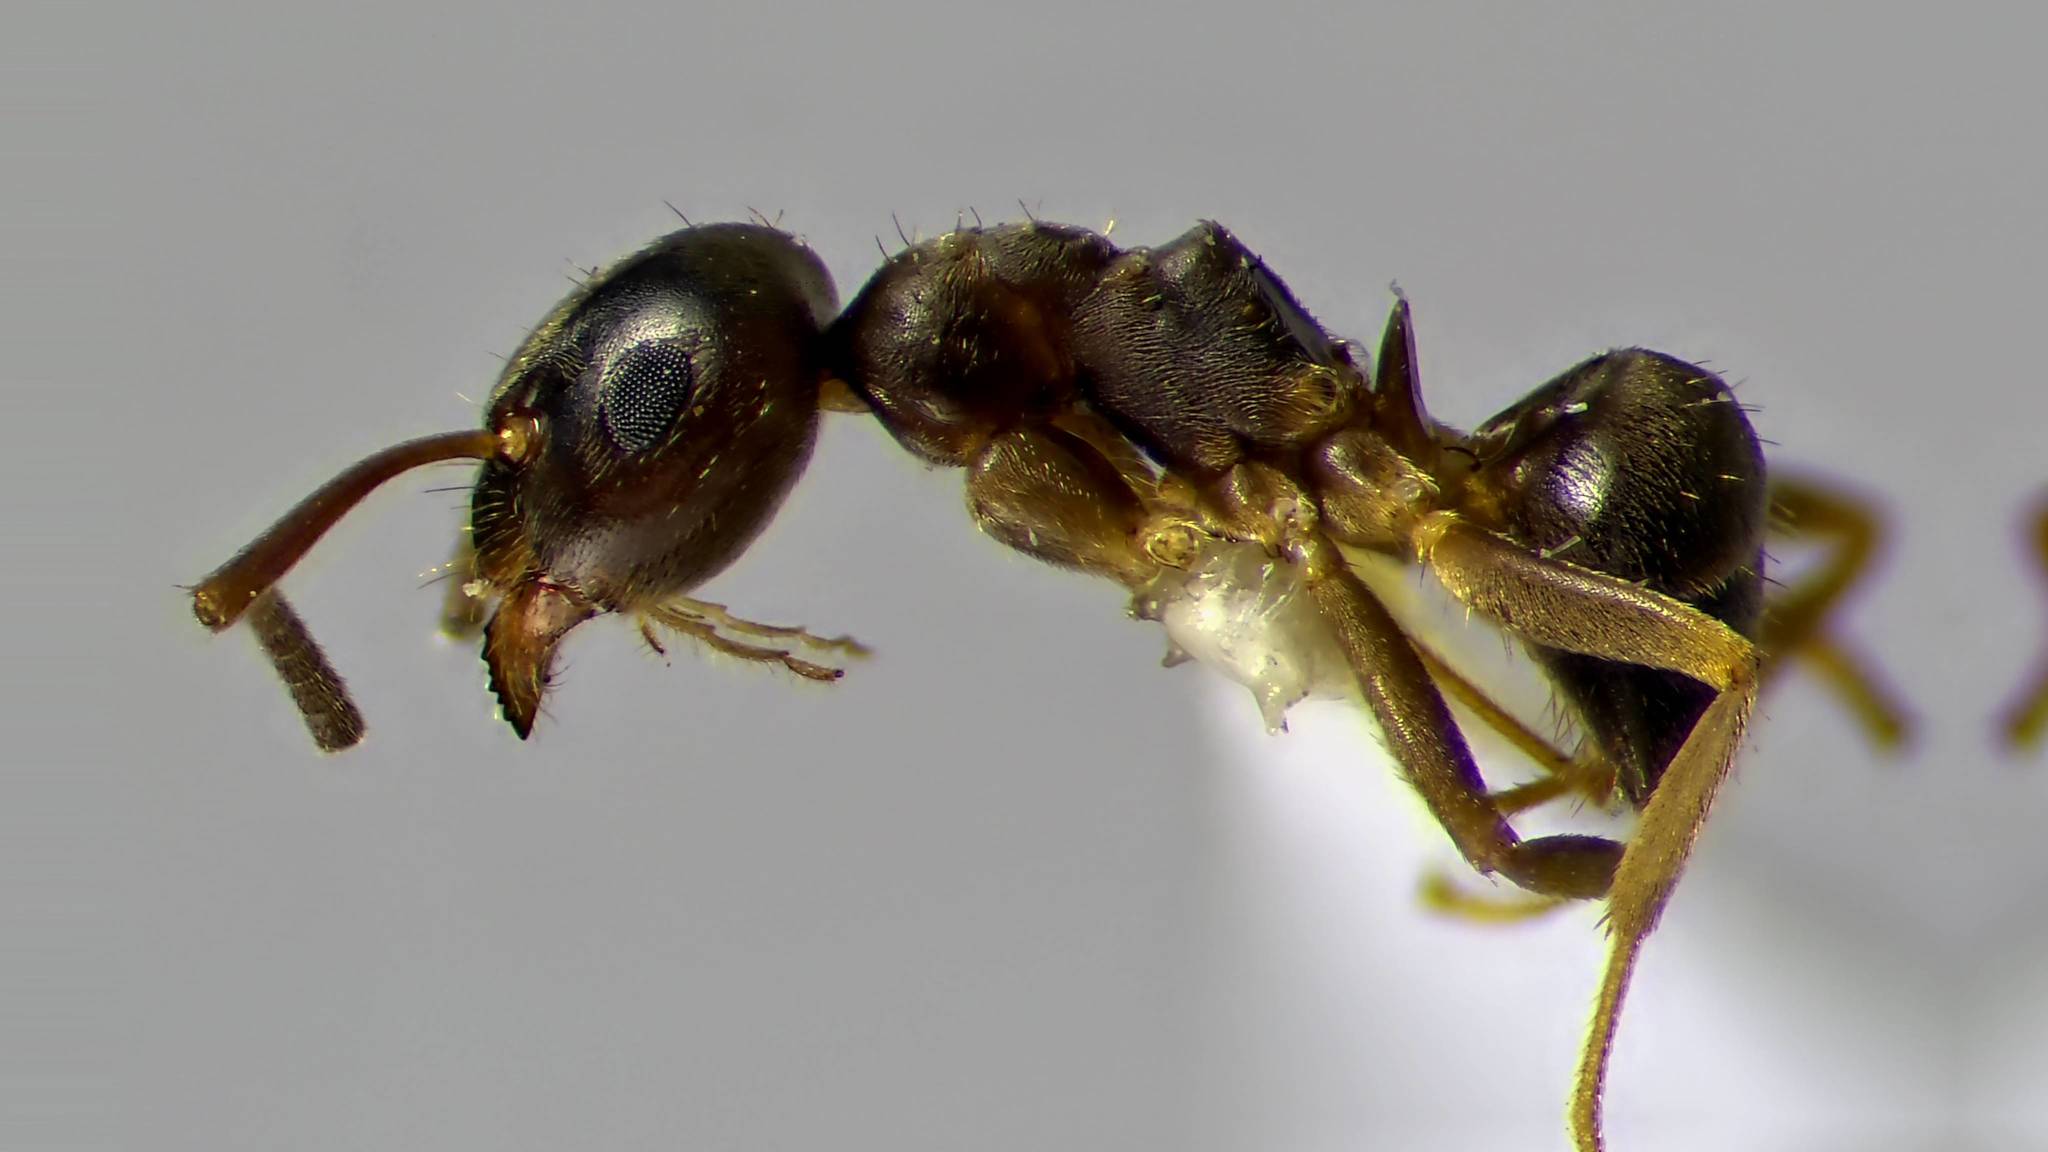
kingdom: Animalia
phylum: Arthropoda
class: Insecta
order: Hymenoptera
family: Formicidae
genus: Lasius
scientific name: Lasius americanus
